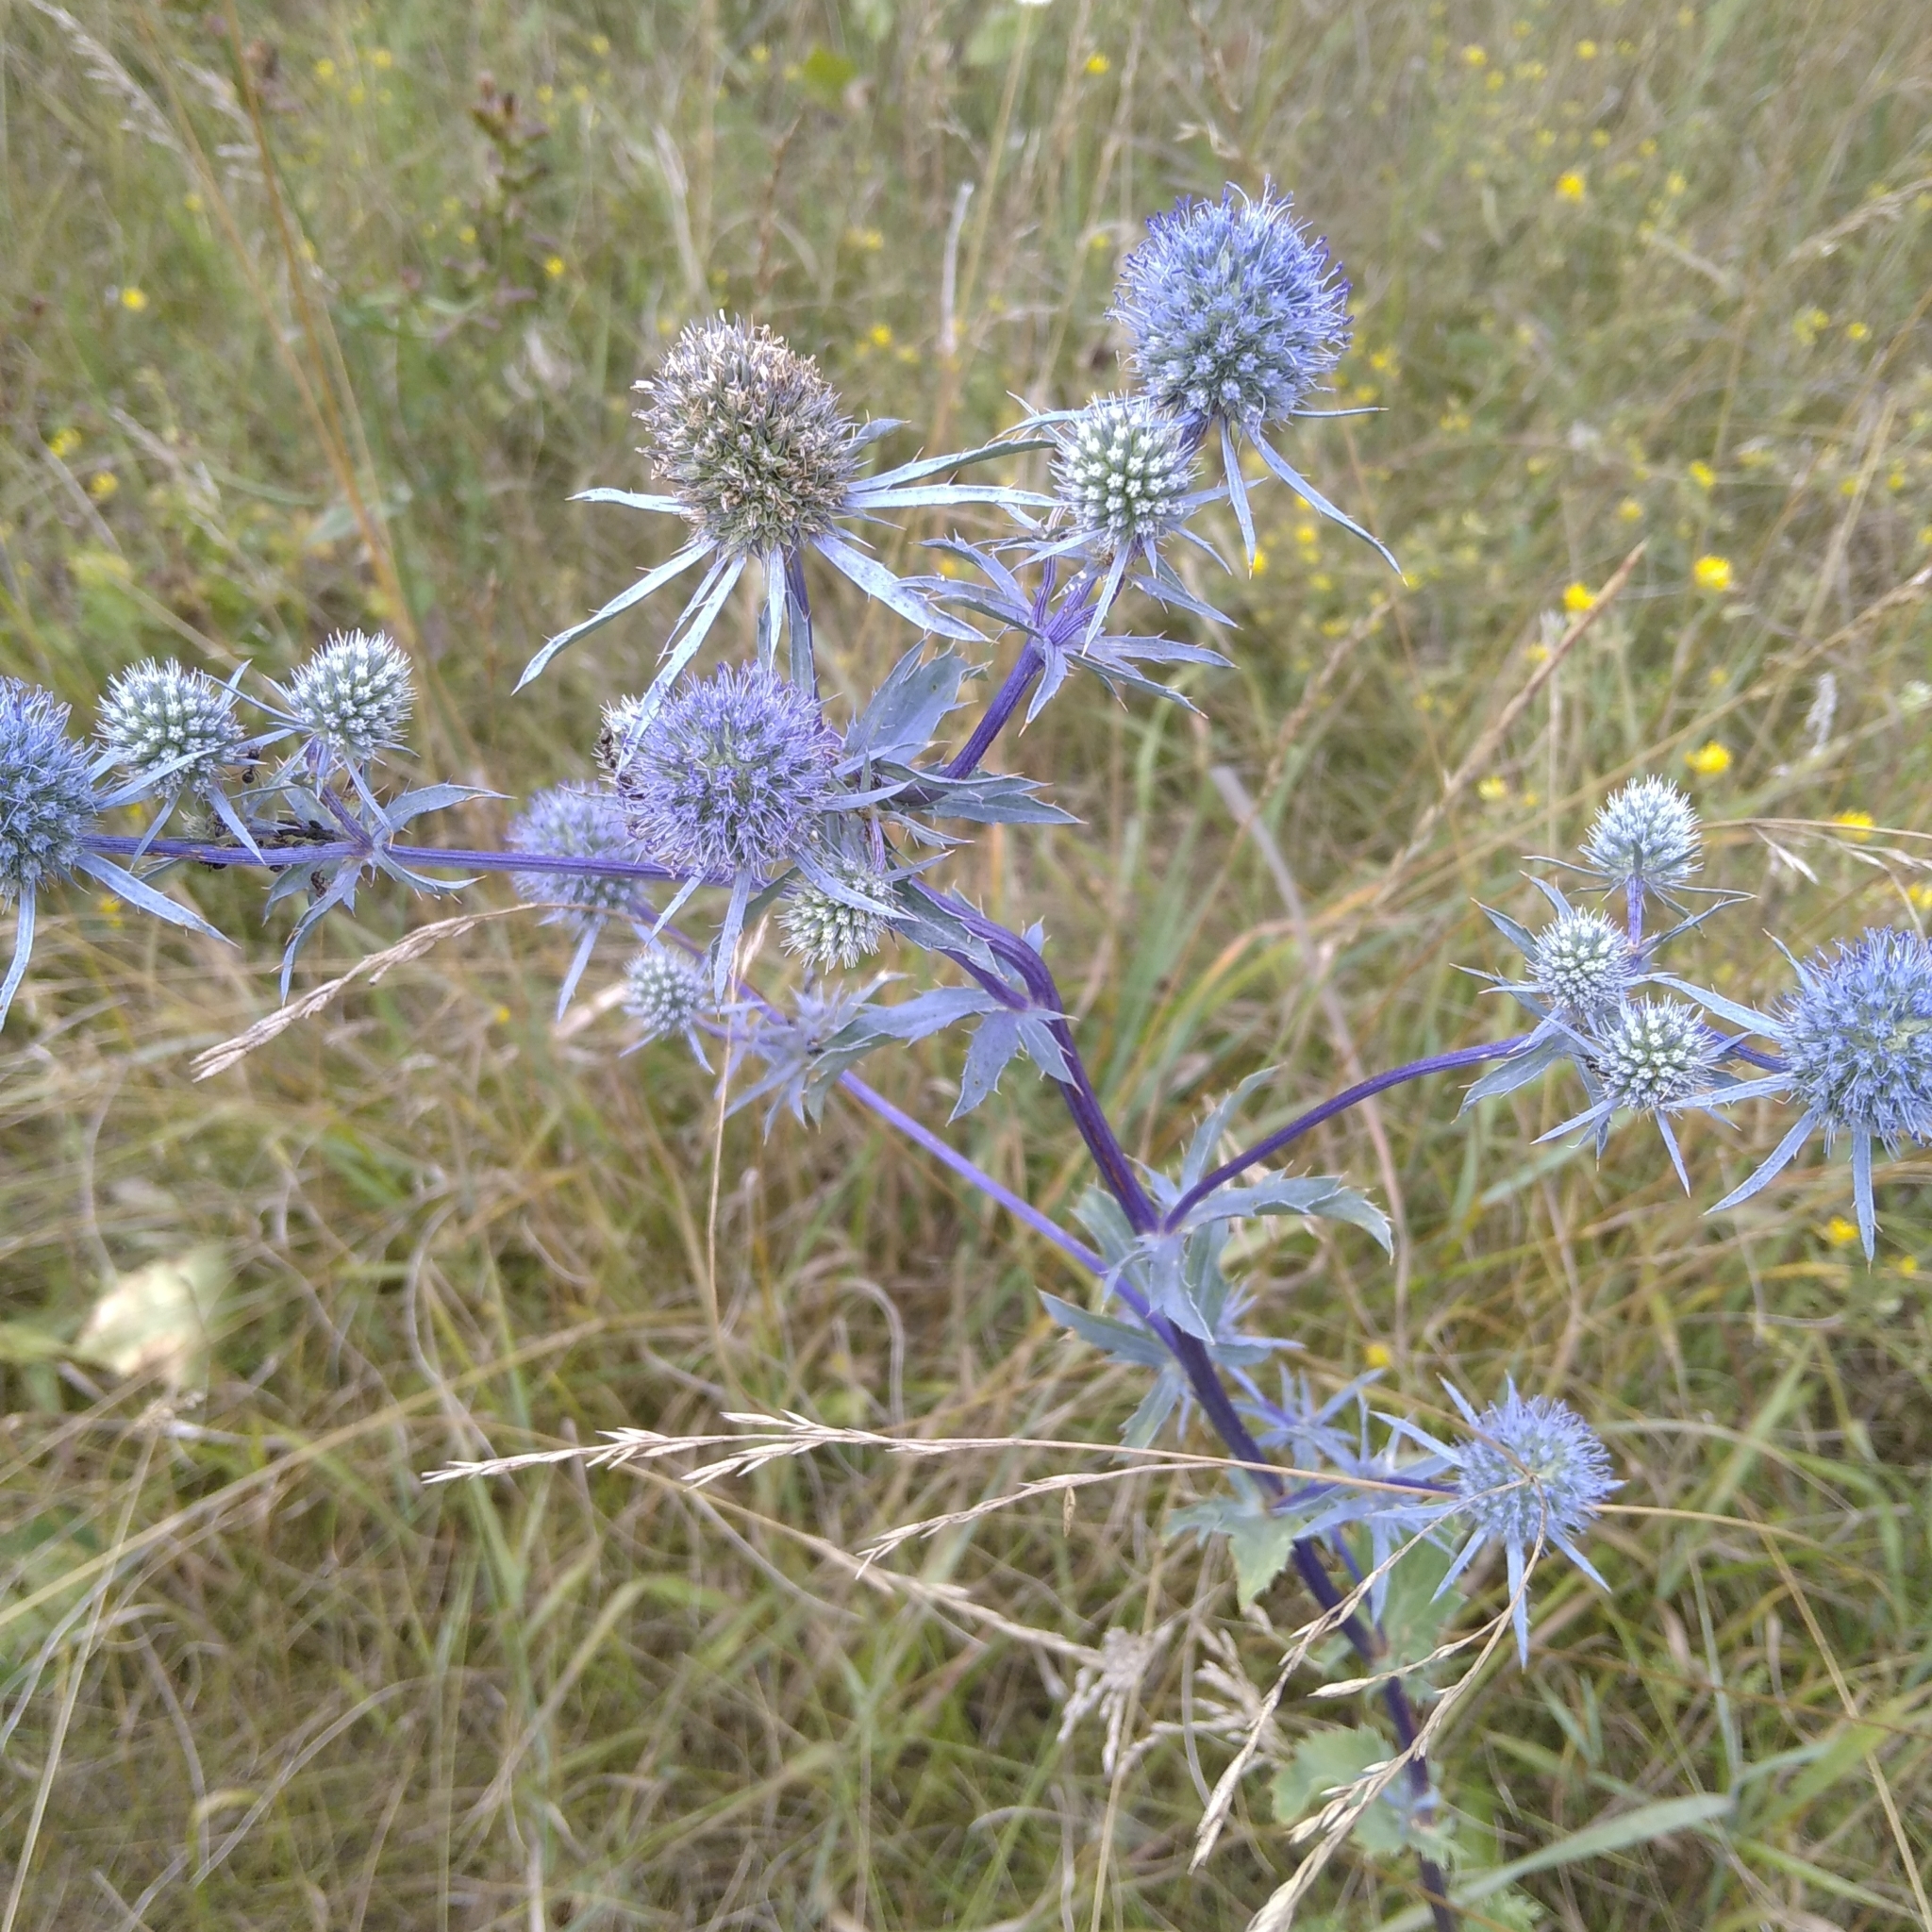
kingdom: Plantae
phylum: Tracheophyta
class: Magnoliopsida
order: Apiales
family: Apiaceae
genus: Eryngium
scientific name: Eryngium planum
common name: Blue eryngo
